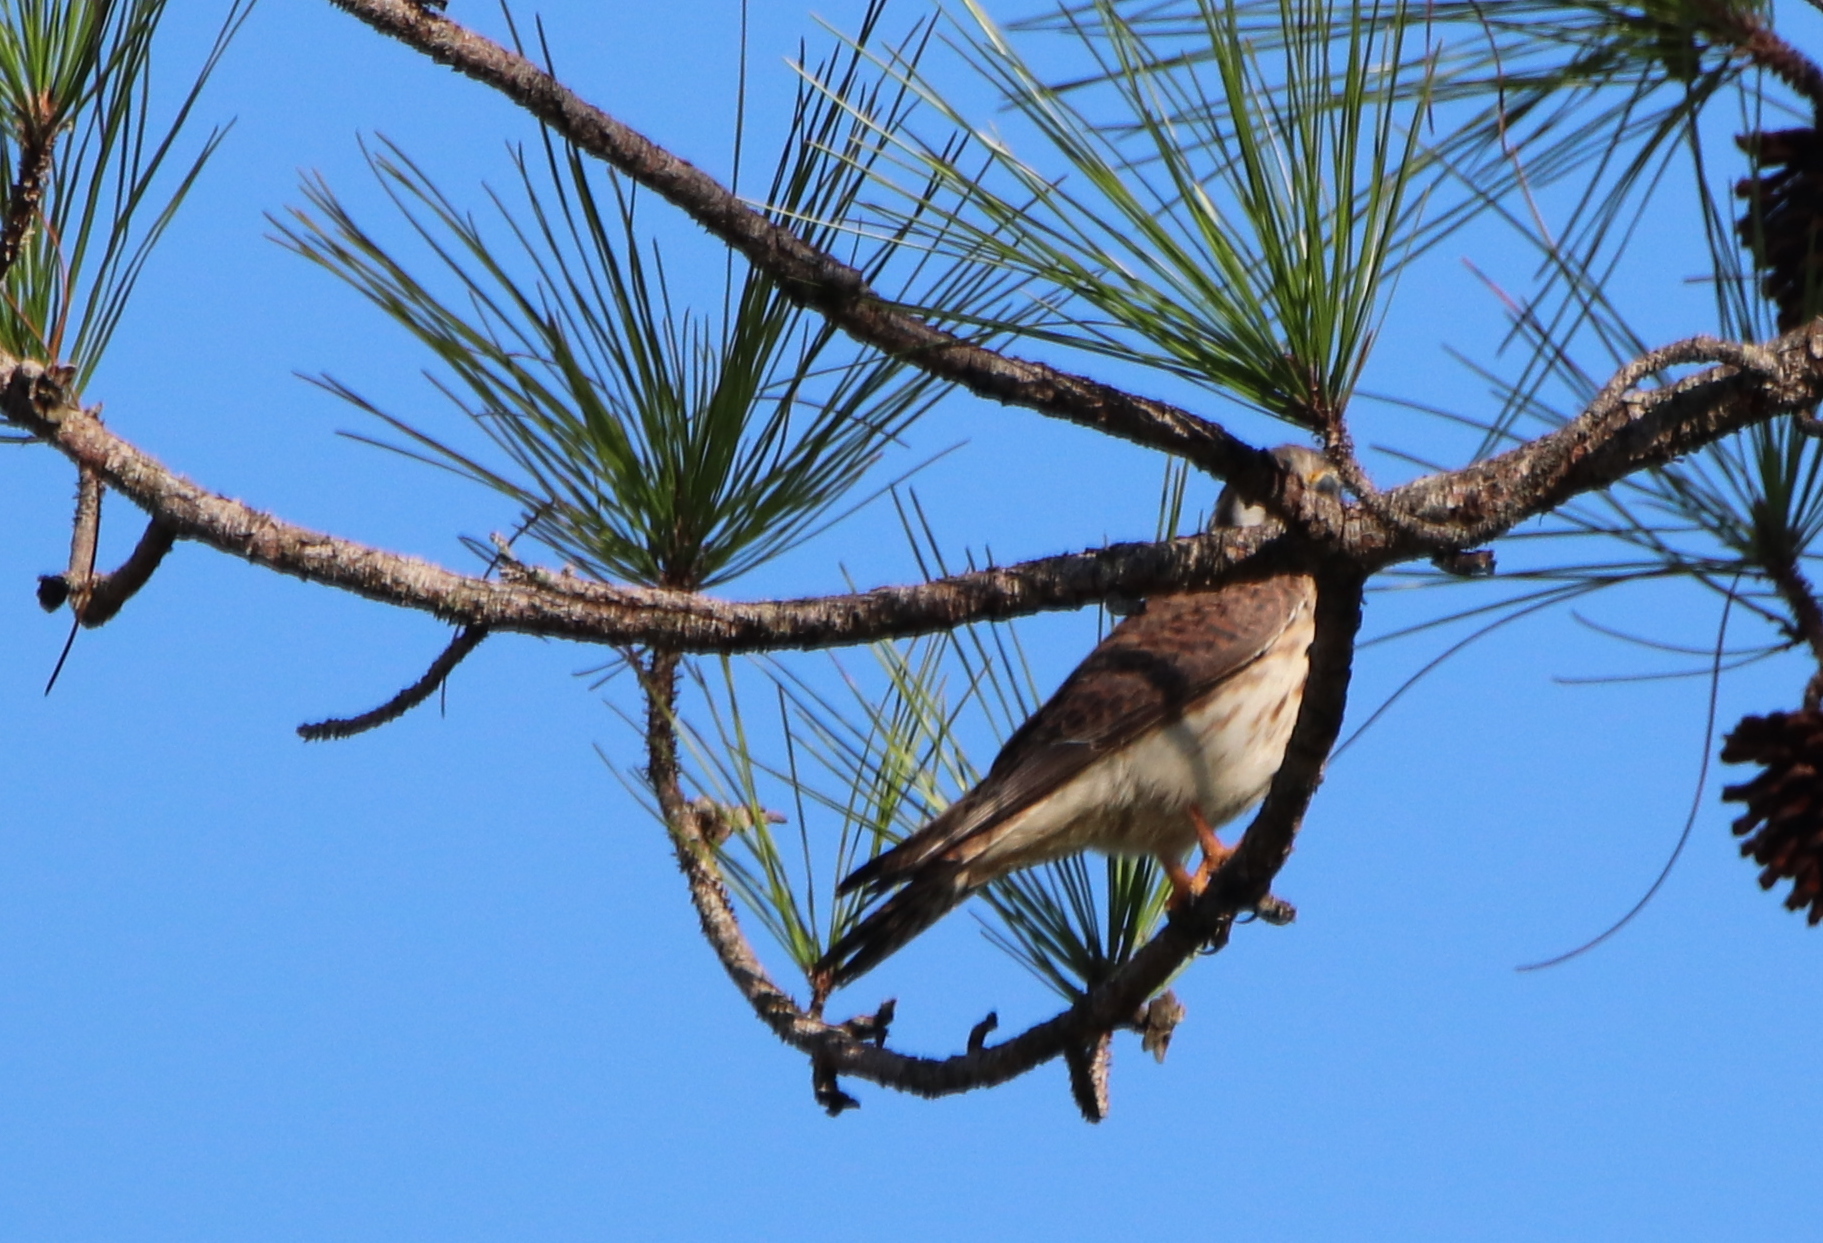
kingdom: Animalia
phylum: Chordata
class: Aves
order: Falconiformes
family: Falconidae
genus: Falco
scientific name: Falco sparverius
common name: American kestrel
